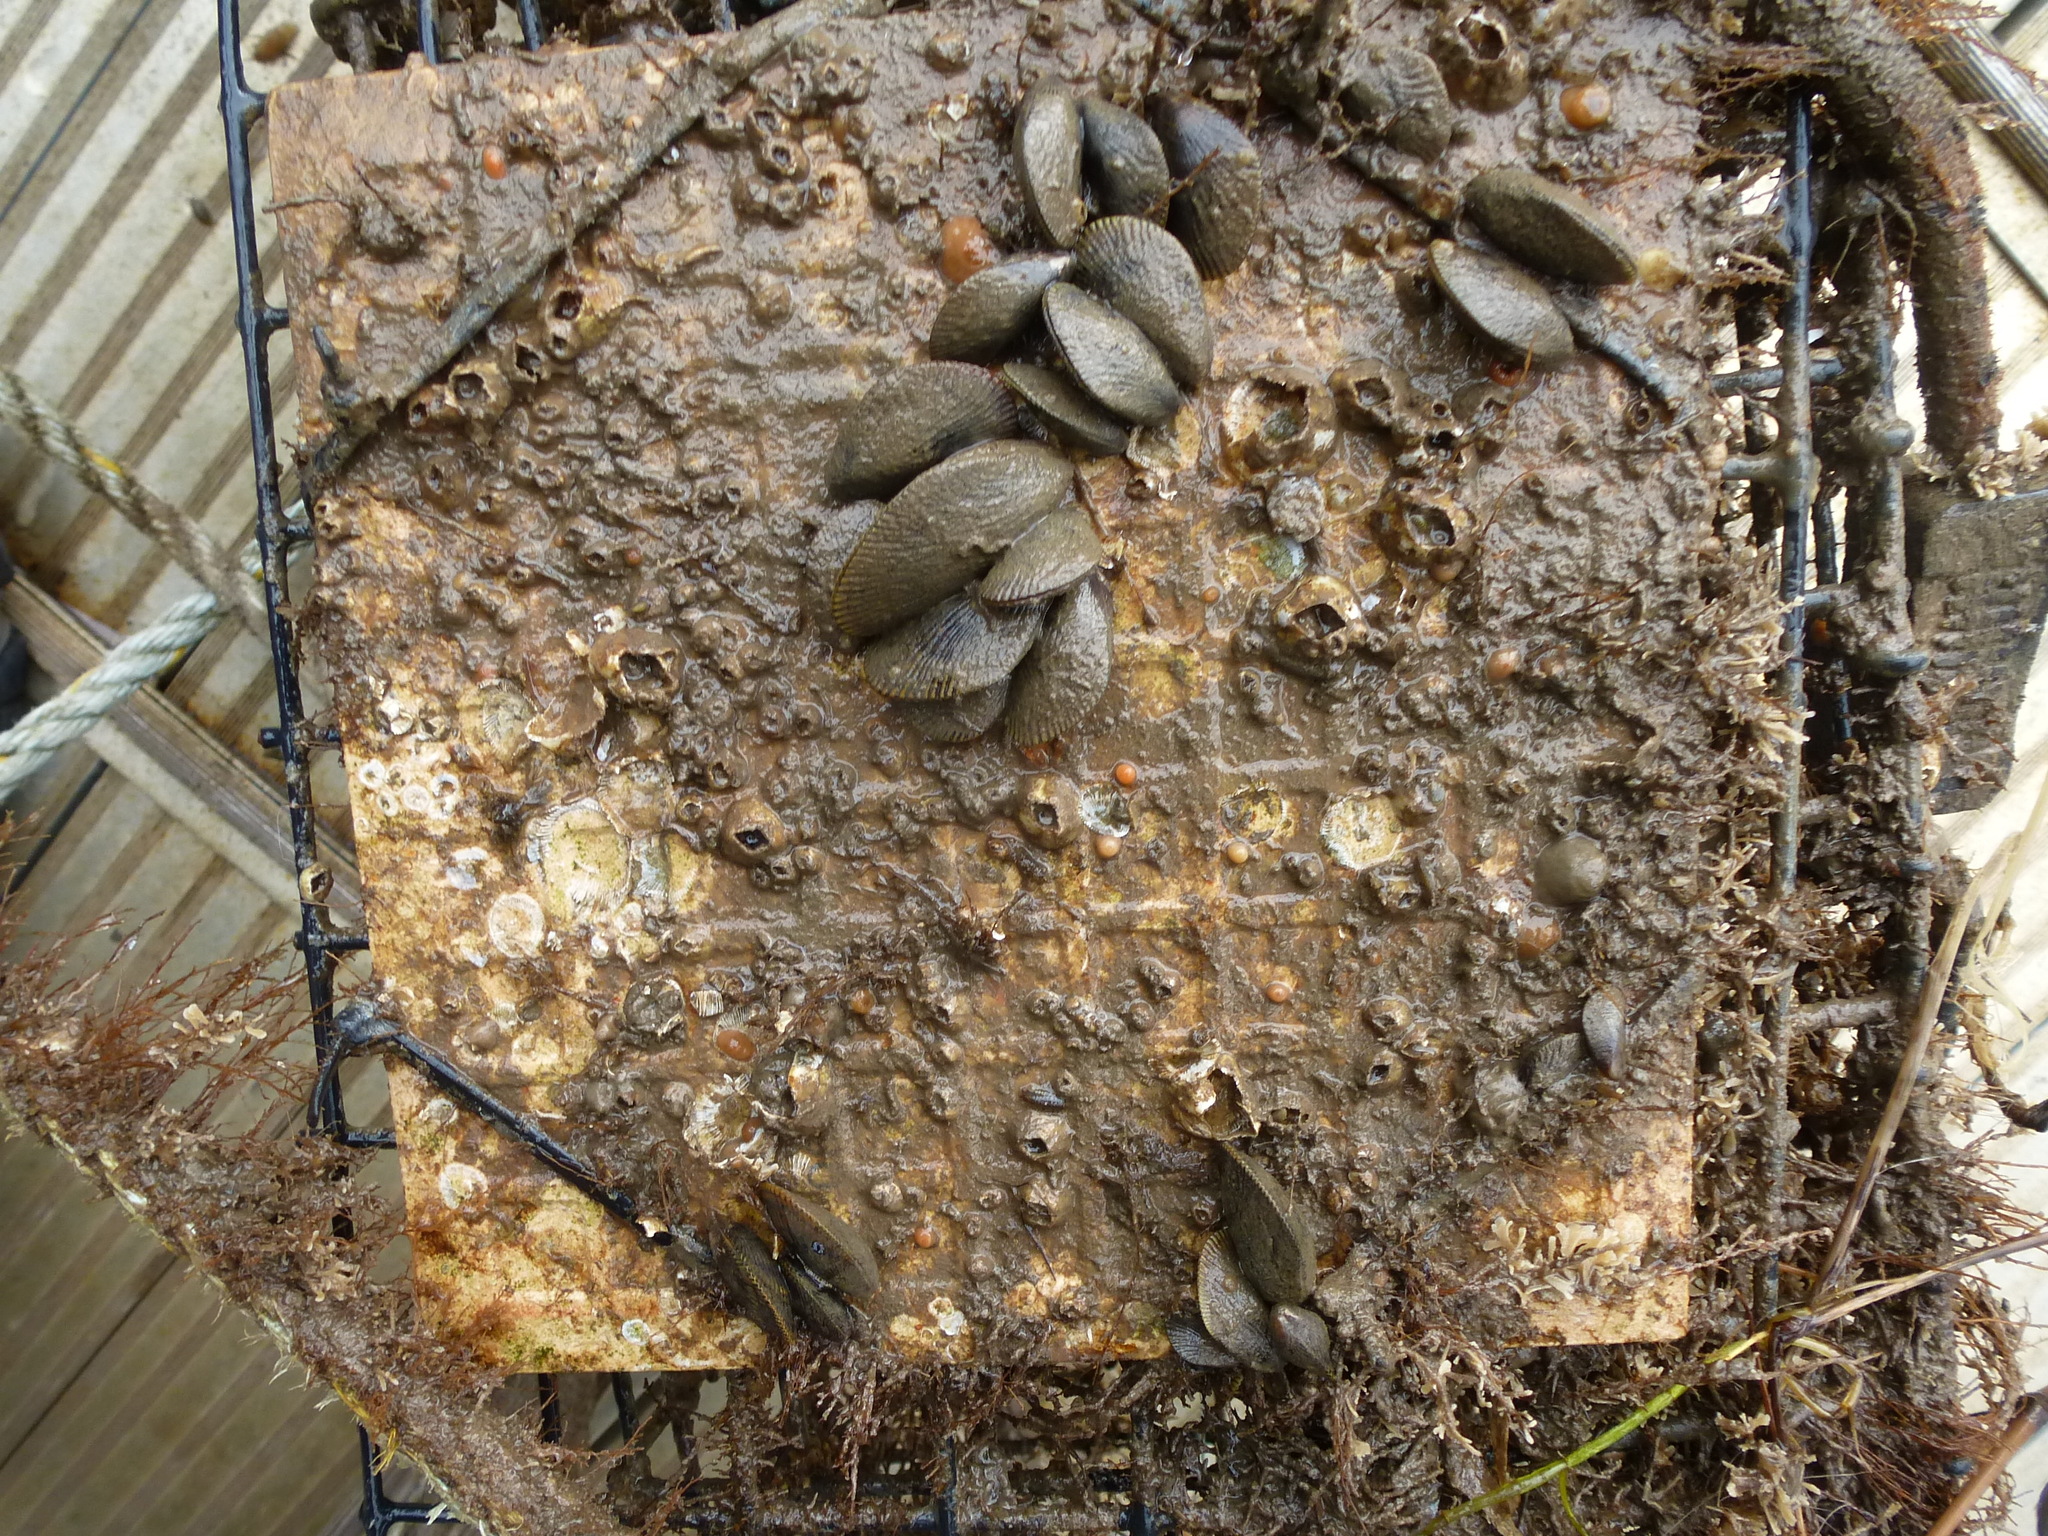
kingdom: Animalia
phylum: Mollusca
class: Bivalvia
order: Mytilida
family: Mytilidae
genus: Geukensia
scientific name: Geukensia demissa
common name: Ribbed mussel
